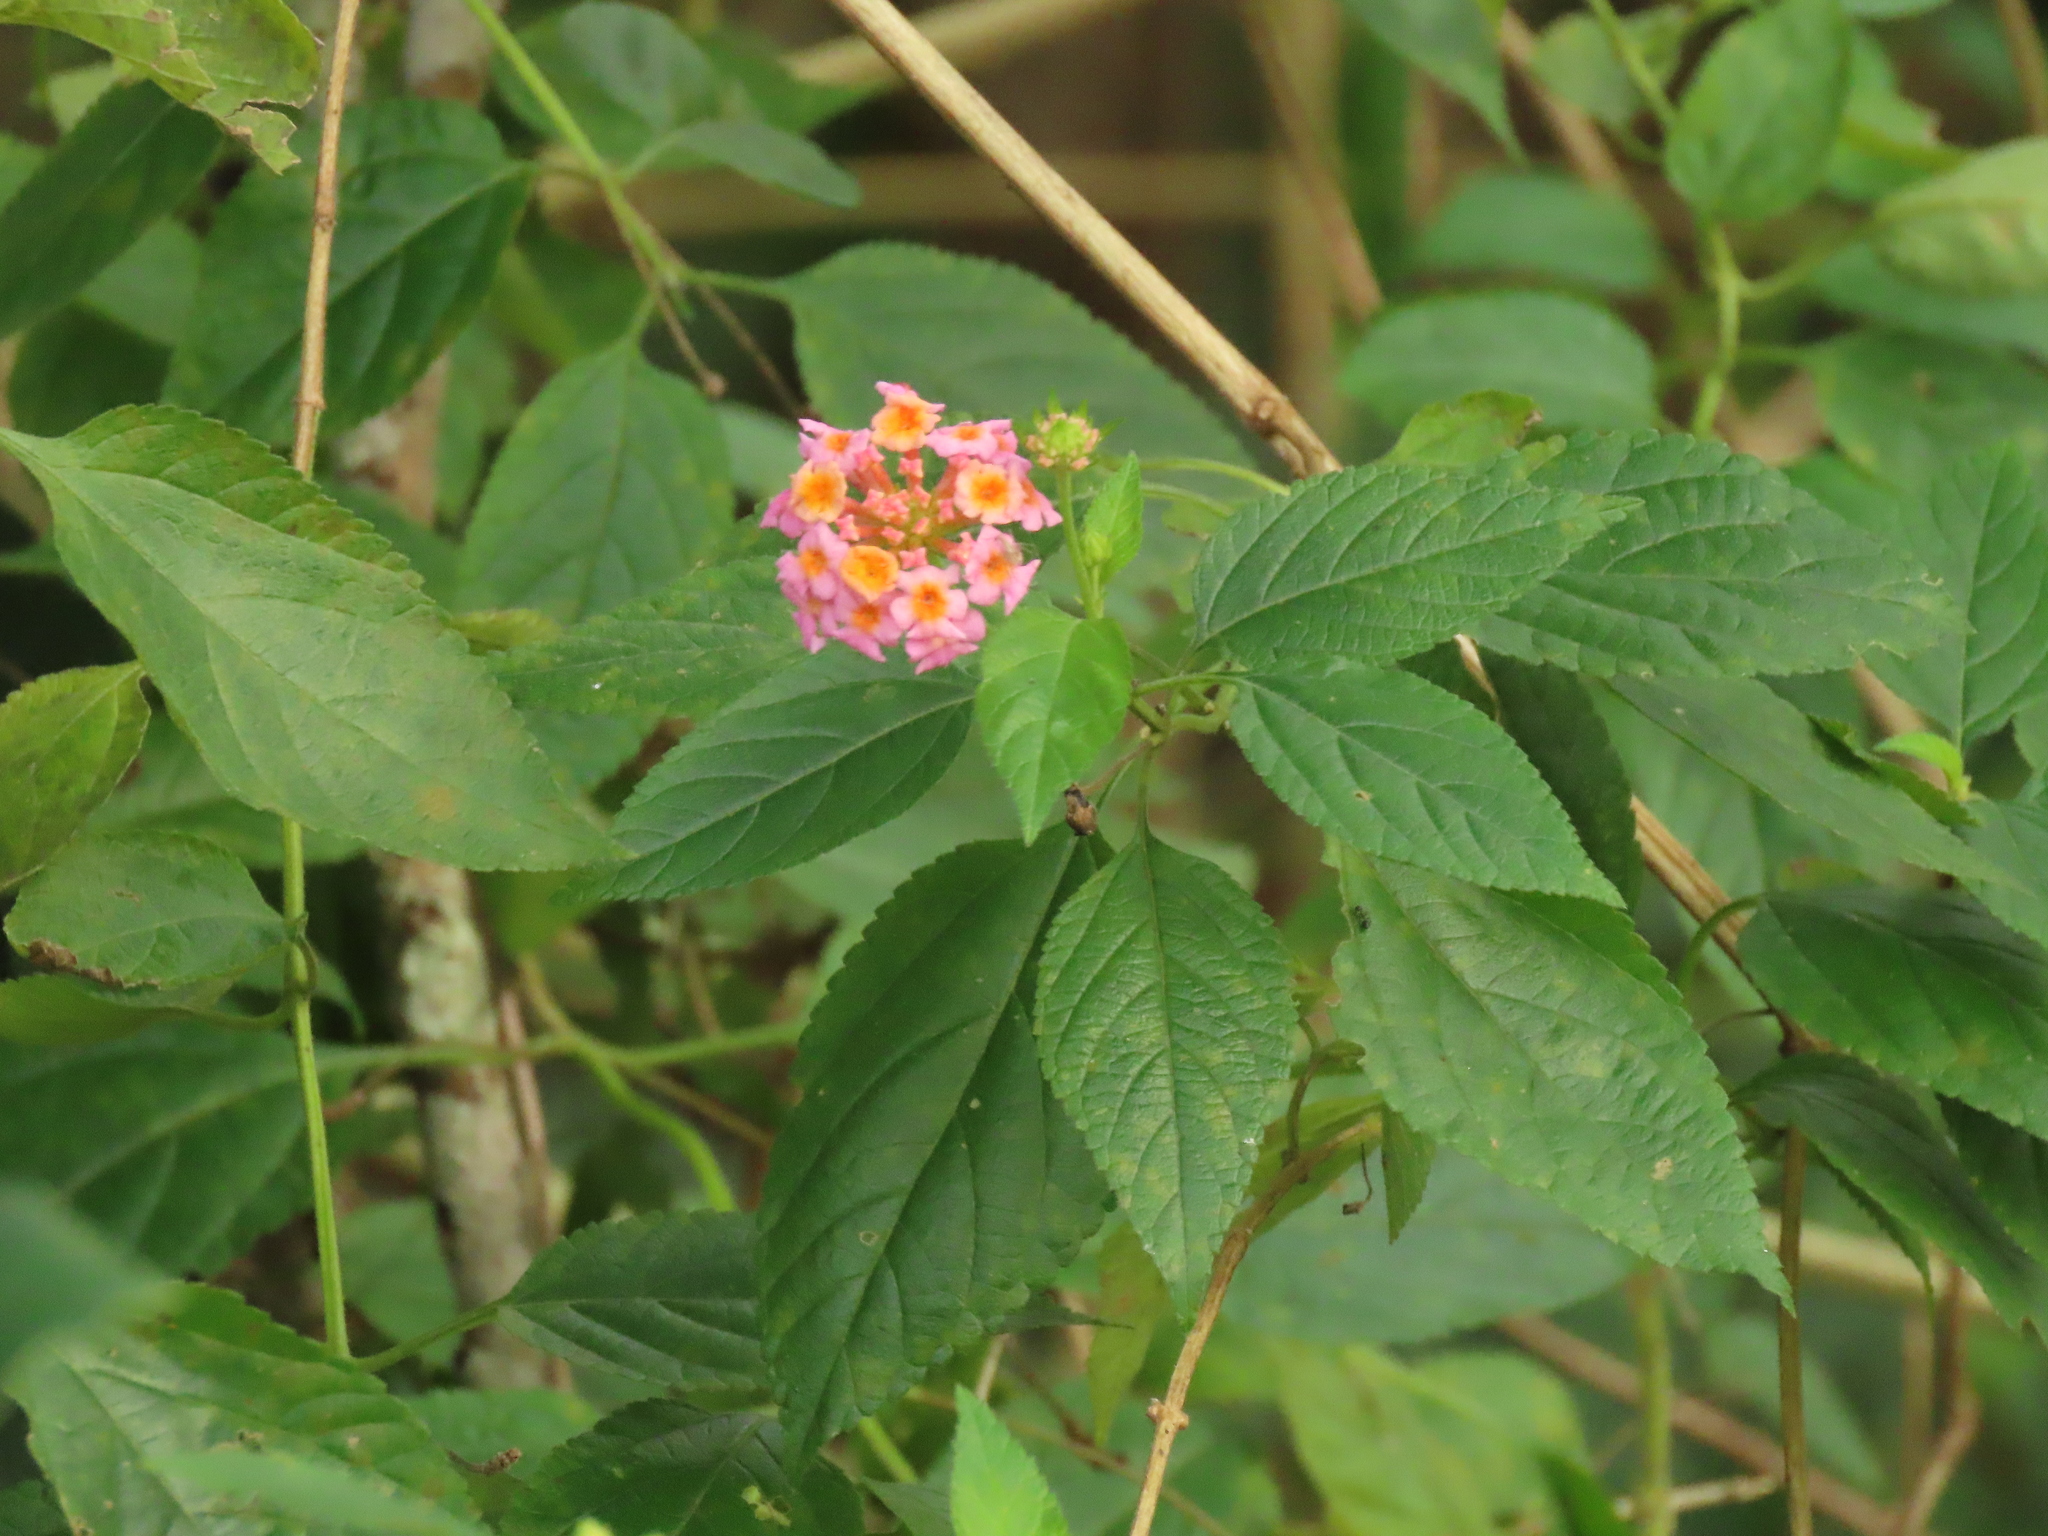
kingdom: Plantae
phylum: Tracheophyta
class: Magnoliopsida
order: Lamiales
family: Verbenaceae
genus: Lantana
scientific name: Lantana camara
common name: Lantana
